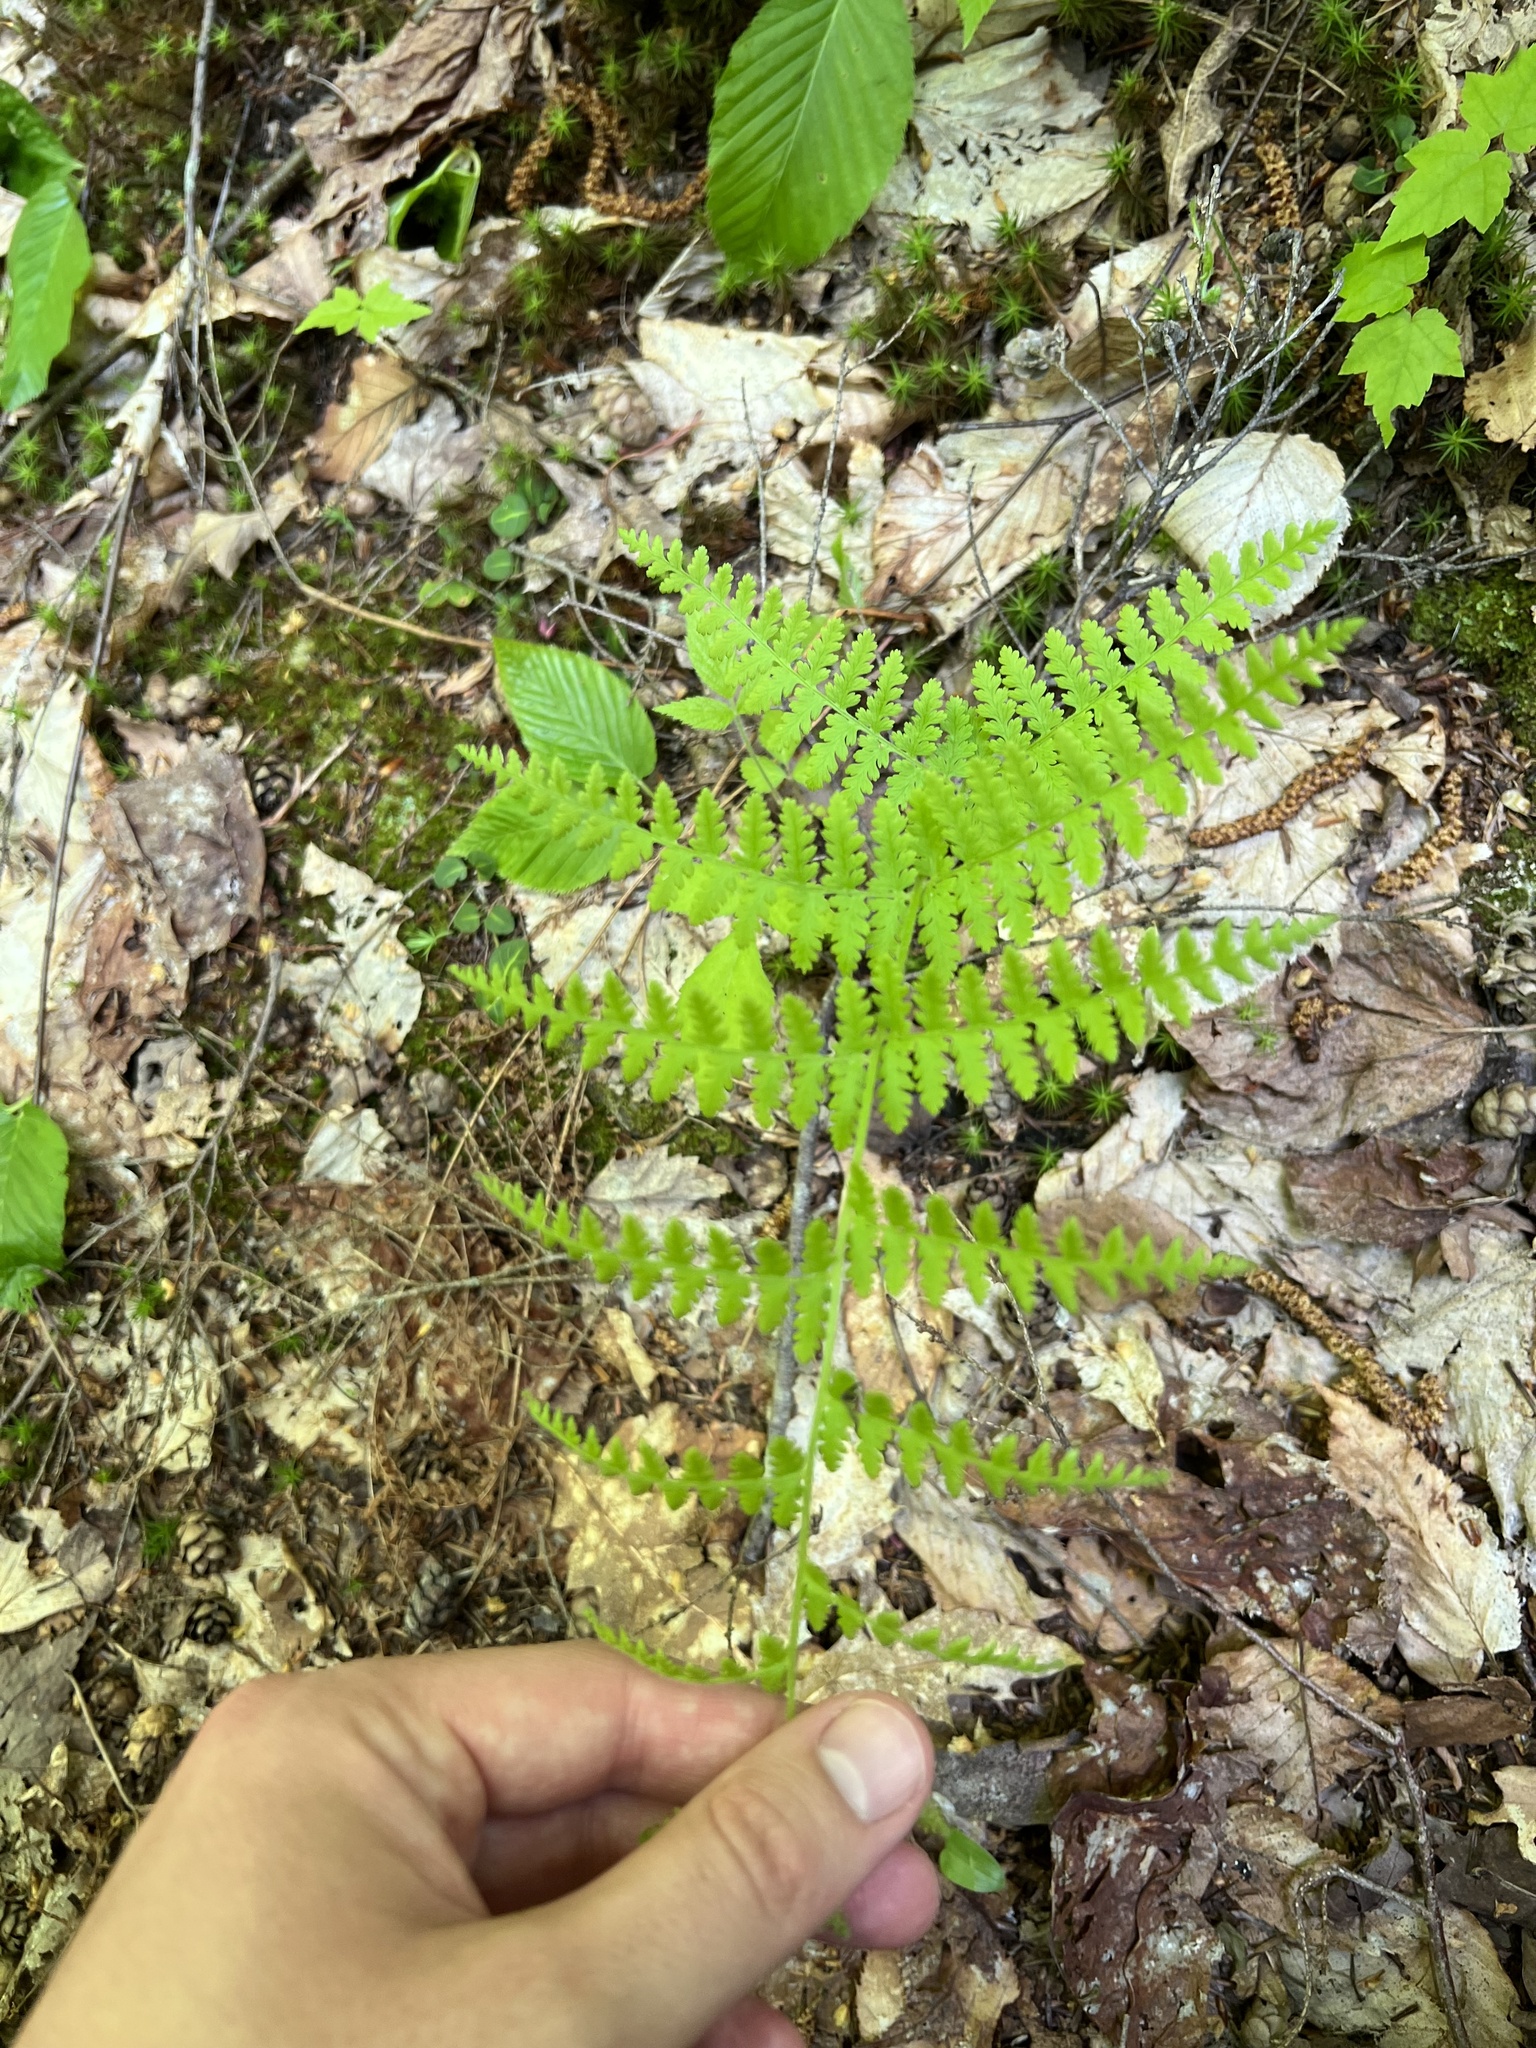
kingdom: Plantae
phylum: Tracheophyta
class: Polypodiopsida
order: Polypodiales
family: Dennstaedtiaceae
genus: Sitobolium
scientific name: Sitobolium punctilobum
